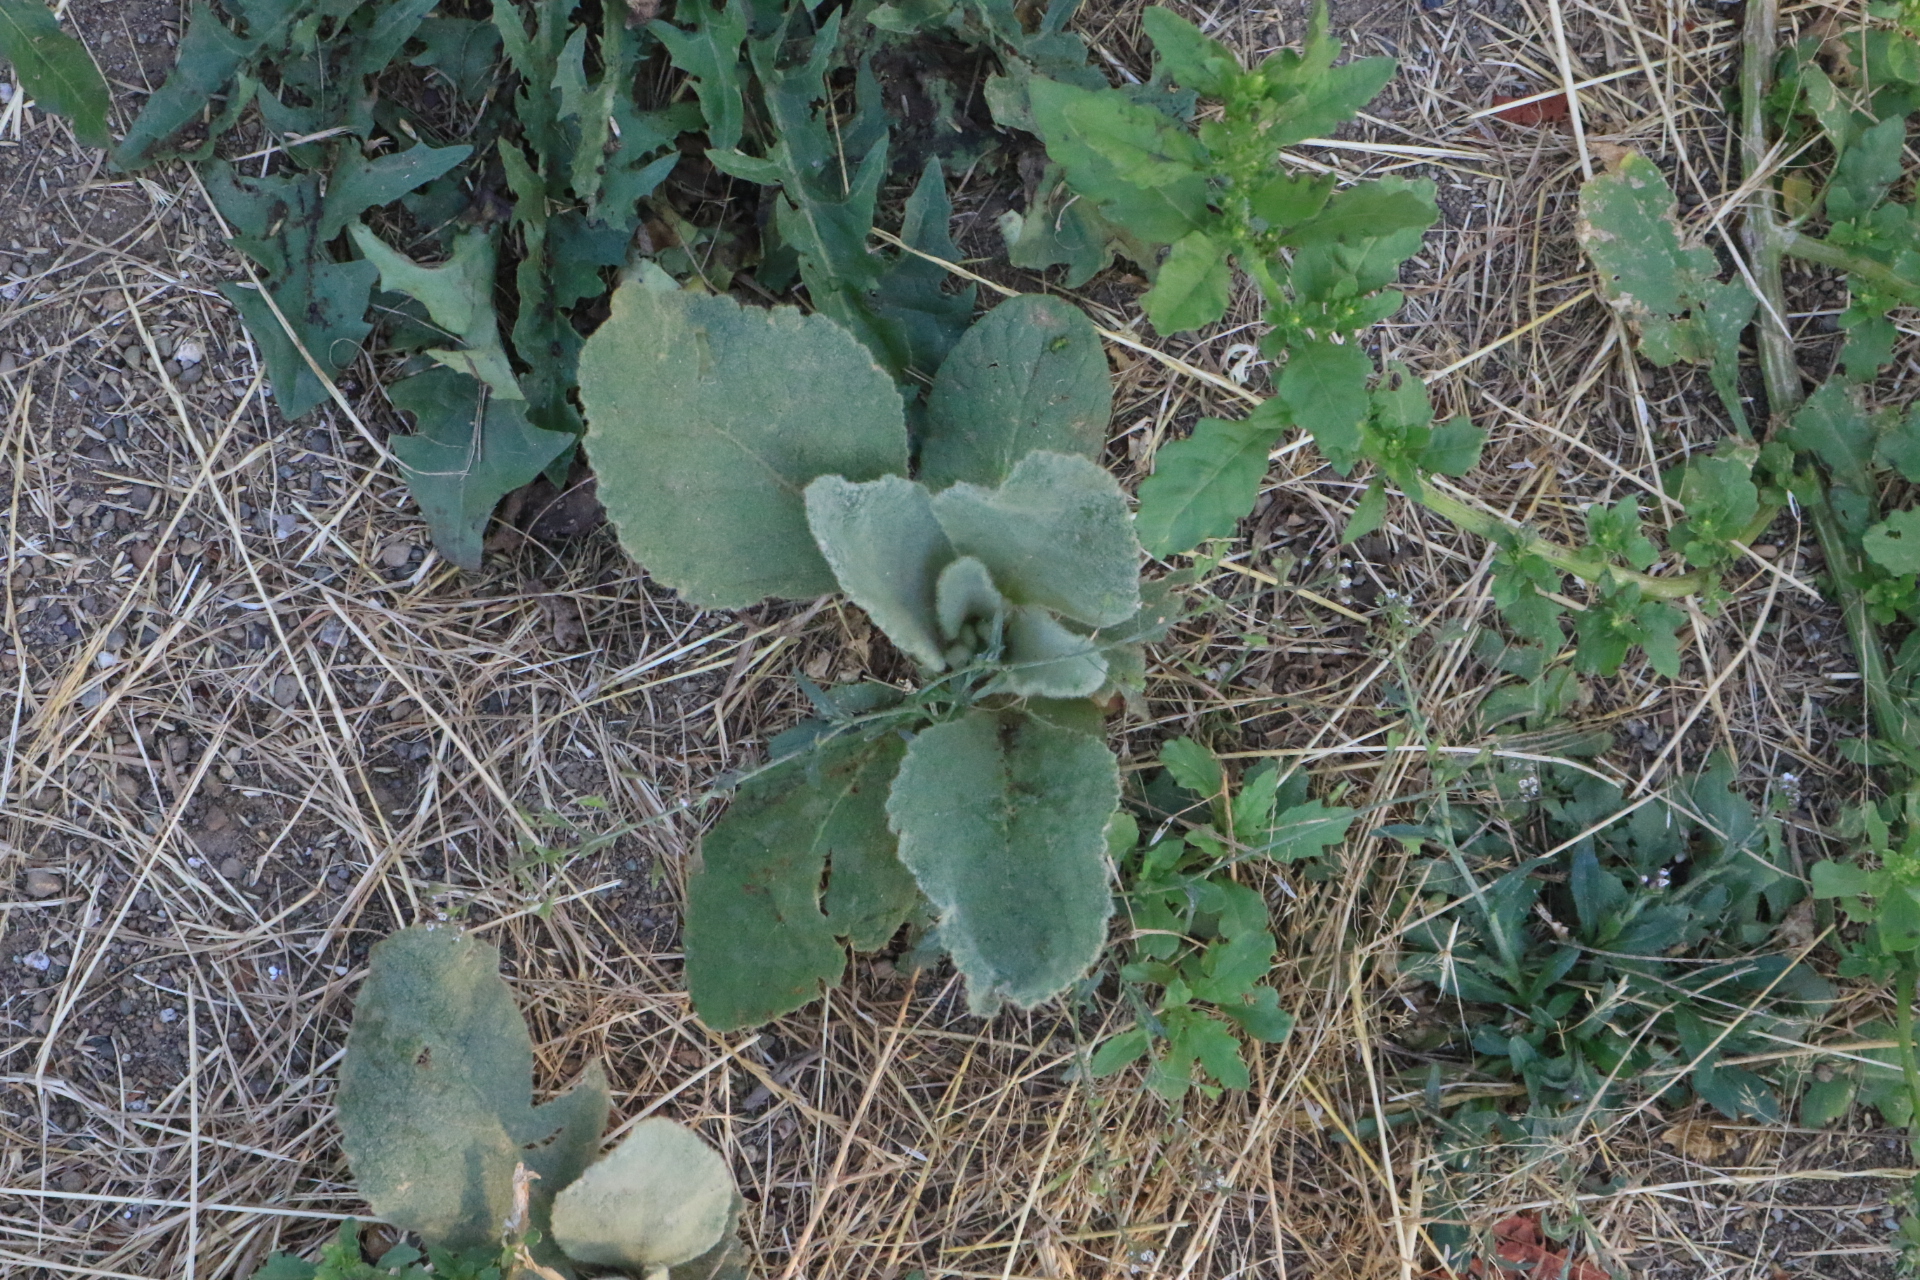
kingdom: Plantae
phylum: Tracheophyta
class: Magnoliopsida
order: Lamiales
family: Scrophulariaceae
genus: Verbascum
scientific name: Verbascum thapsus
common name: Common mullein
